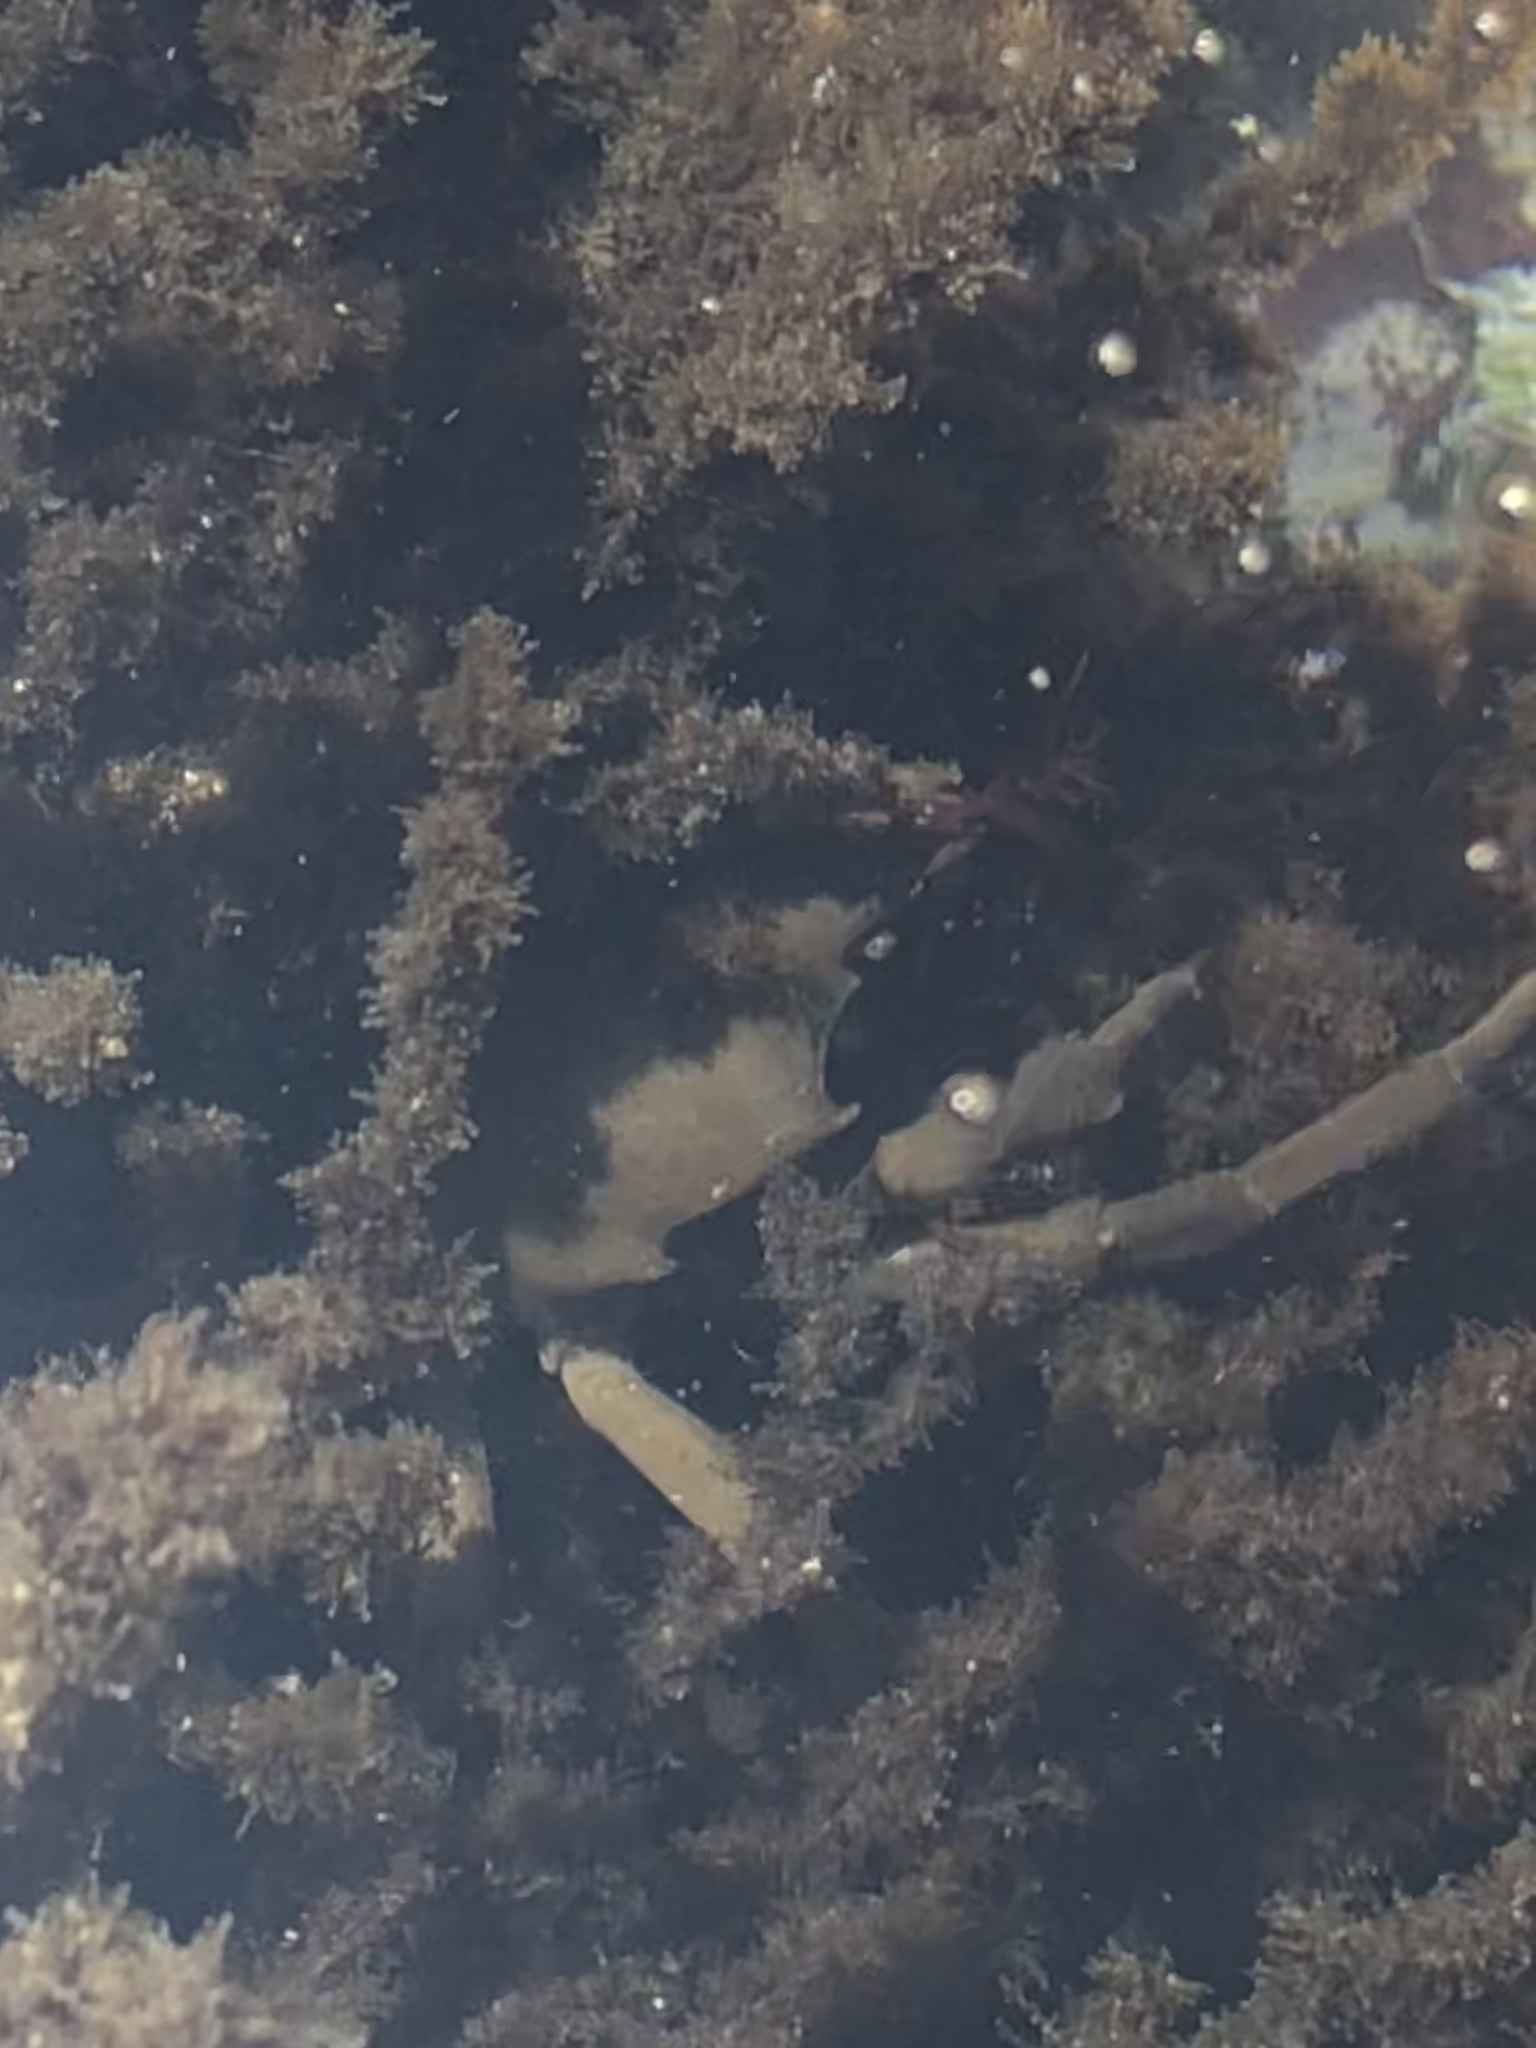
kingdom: Animalia
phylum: Arthropoda
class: Malacostraca
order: Decapoda
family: Epialtidae
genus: Pugettia
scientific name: Pugettia producta
